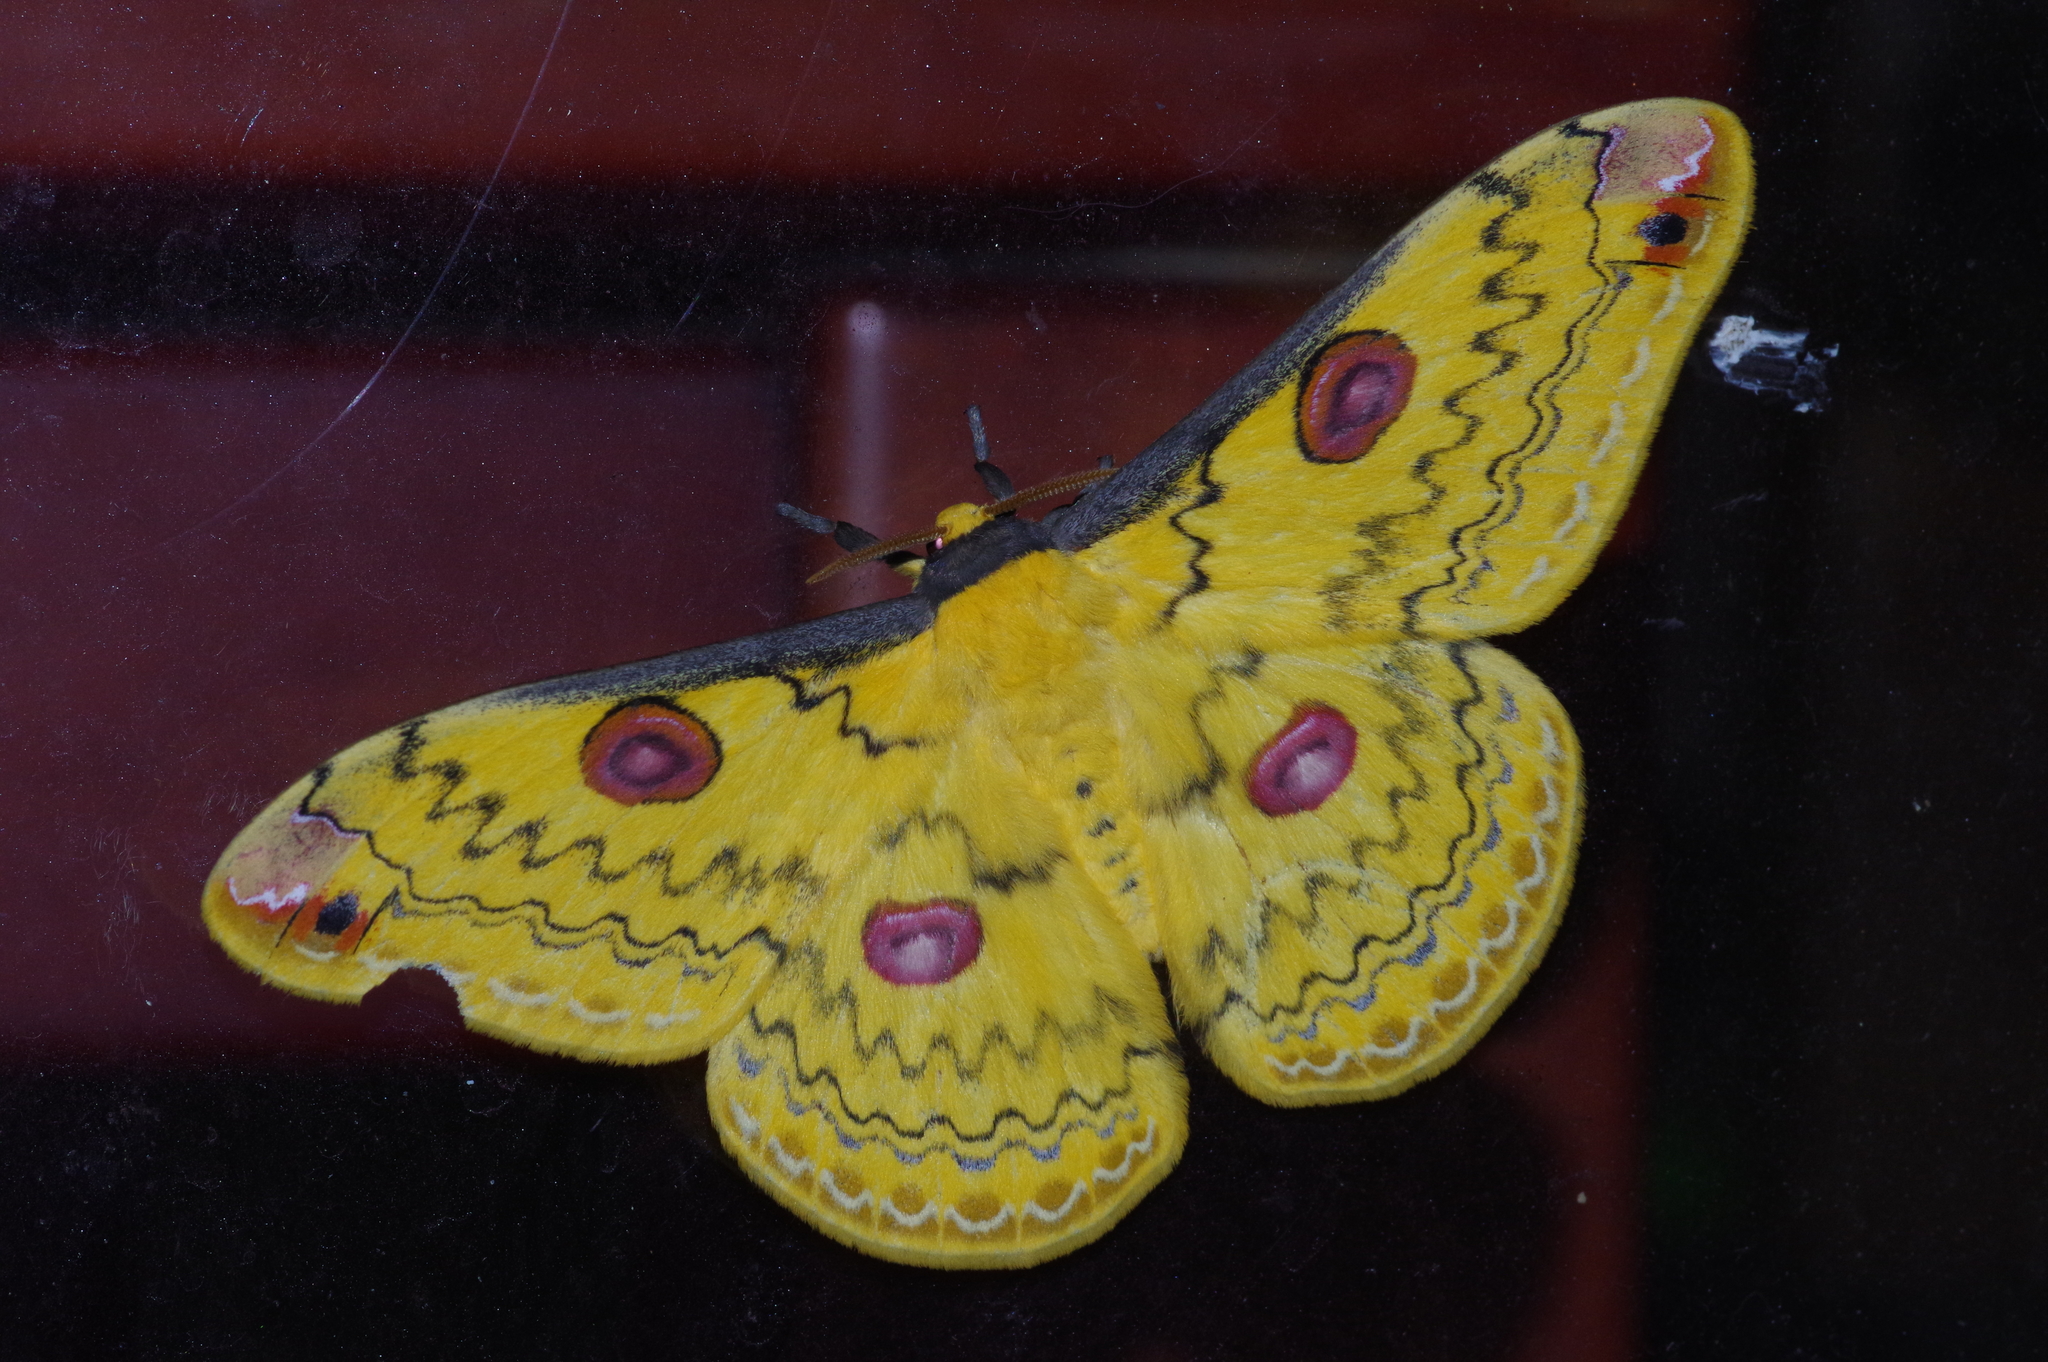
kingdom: Animalia
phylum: Arthropoda
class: Insecta
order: Lepidoptera
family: Saturniidae
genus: Loepa
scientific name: Loepa sakaei
